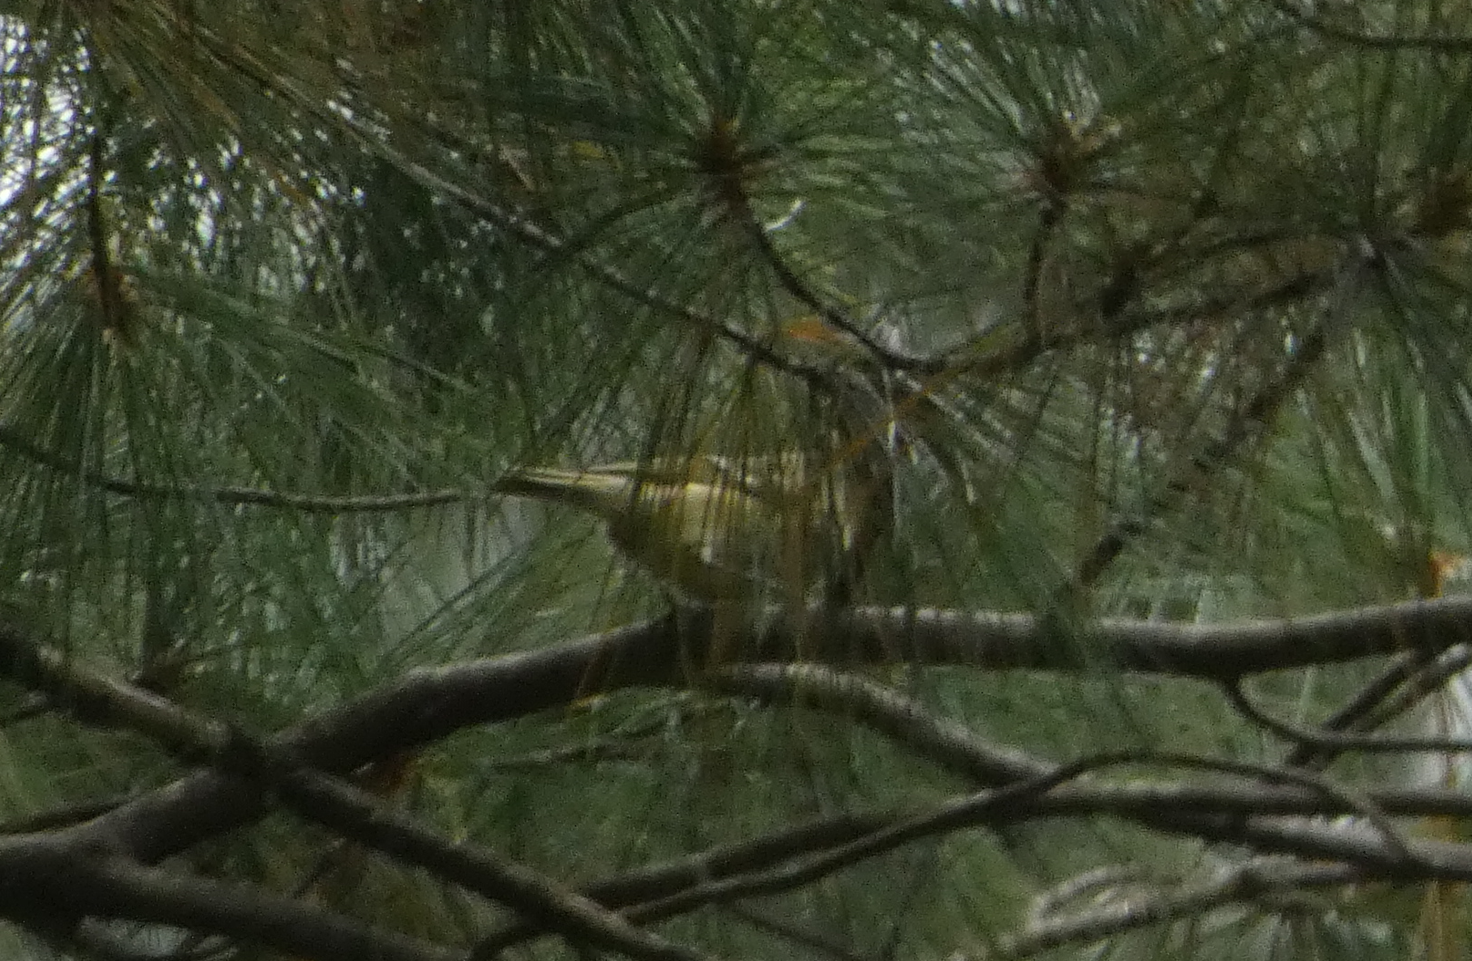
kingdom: Animalia
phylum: Chordata
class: Aves
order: Passeriformes
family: Regulidae
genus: Regulus
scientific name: Regulus calendula
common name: Ruby-crowned kinglet
